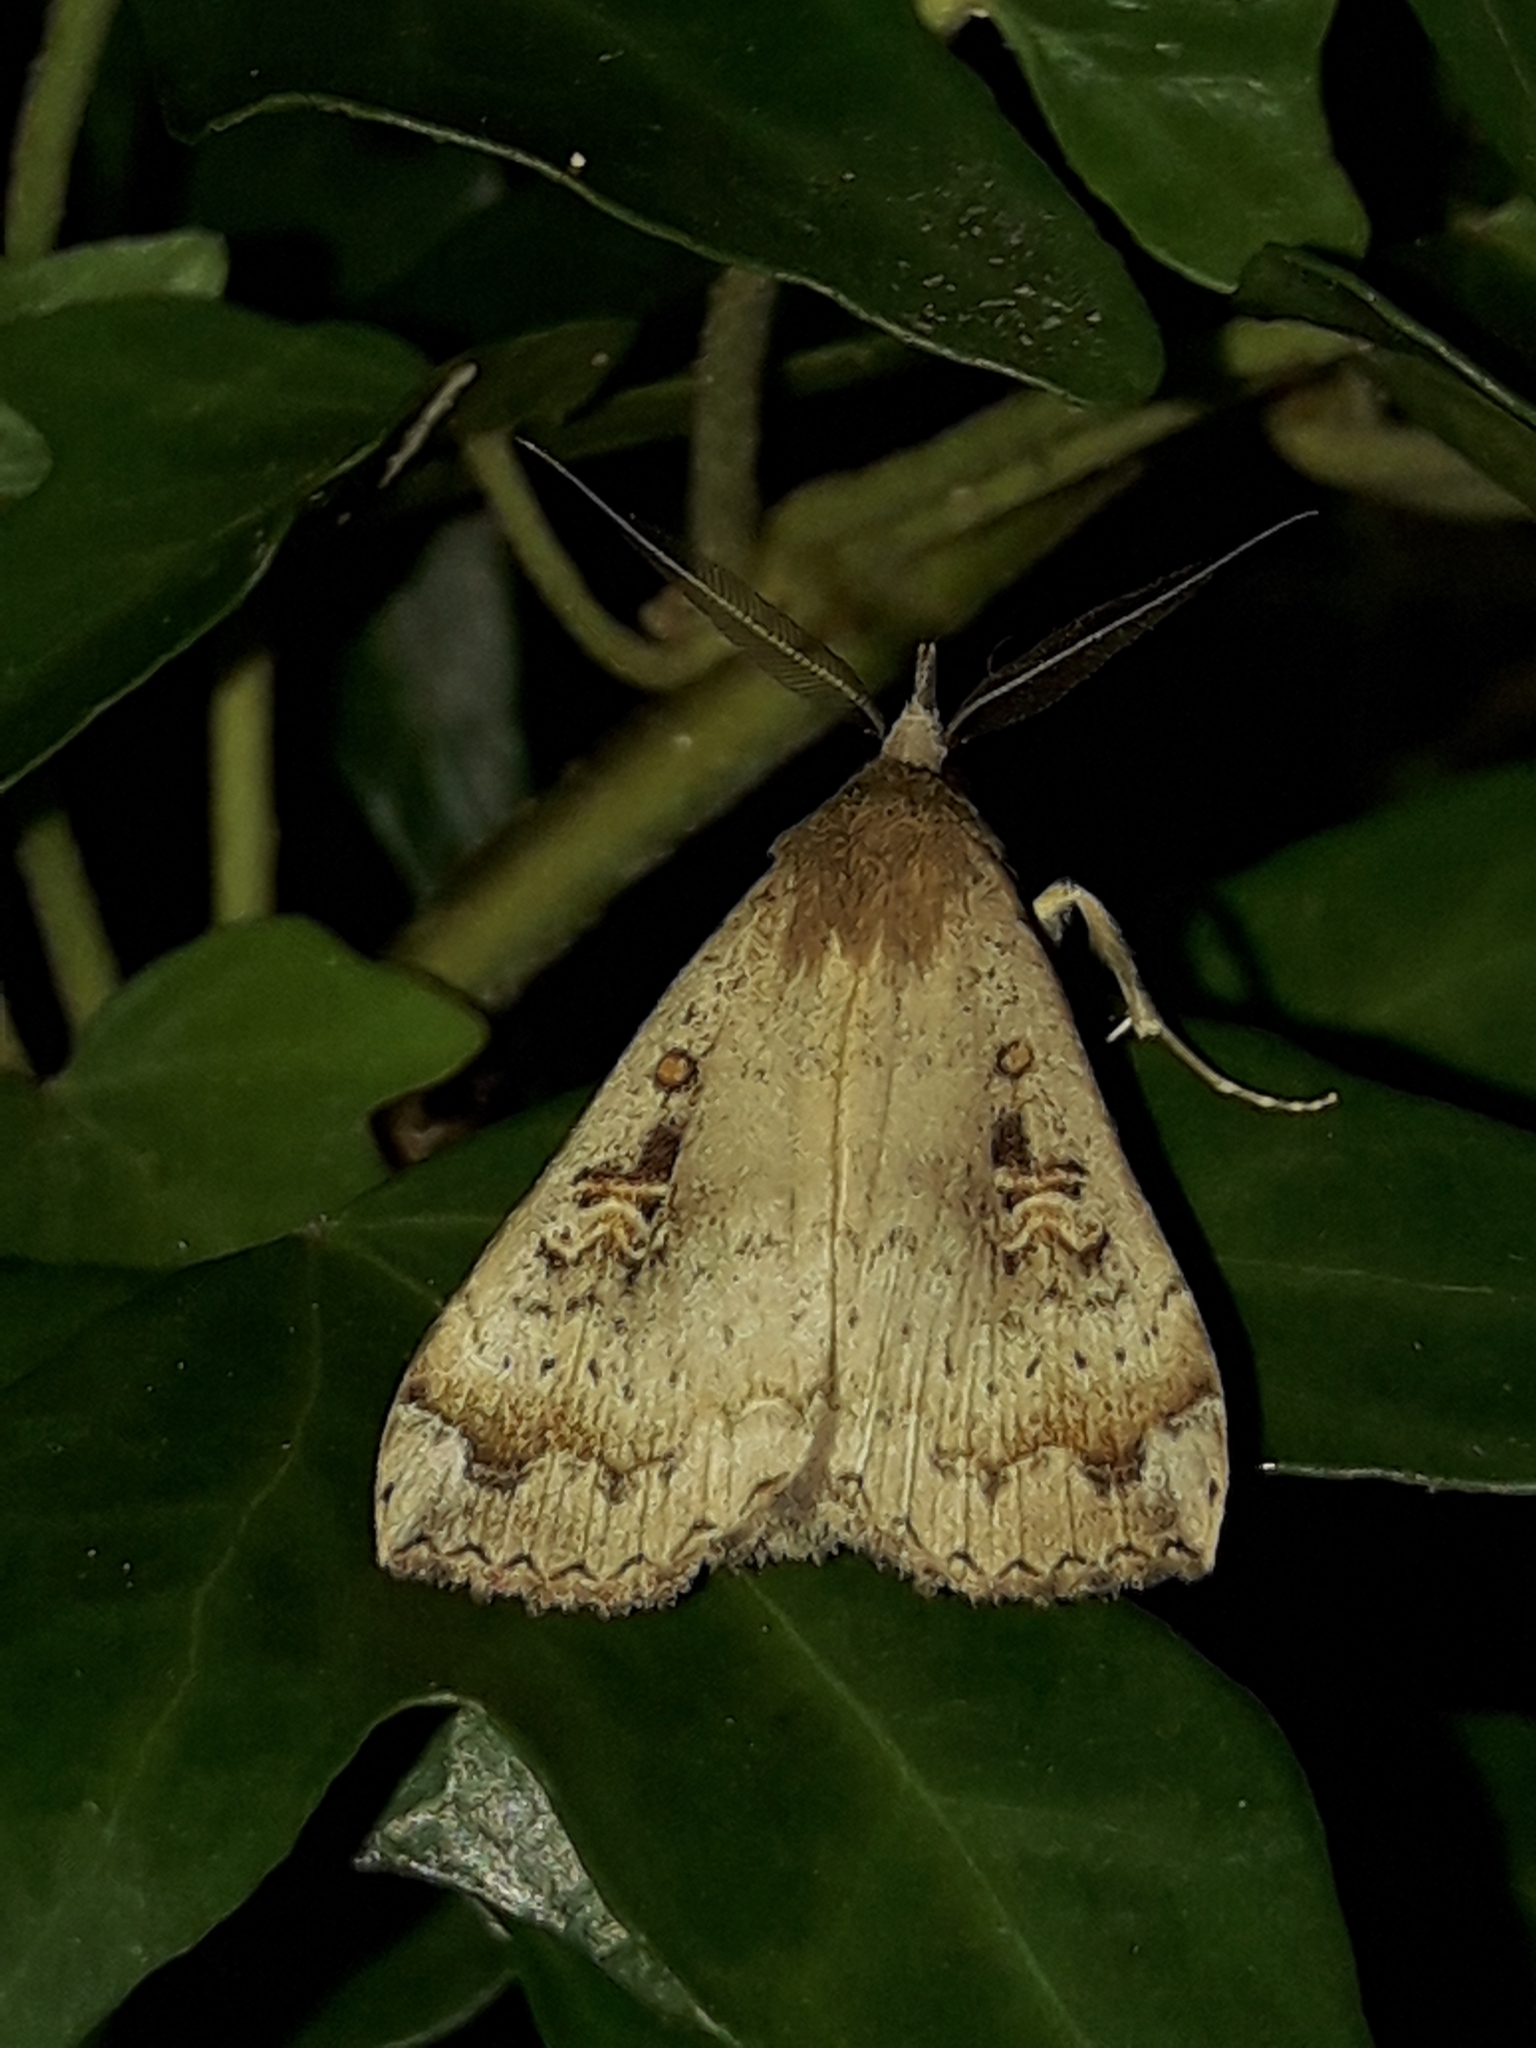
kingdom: Animalia
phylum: Arthropoda
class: Insecta
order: Lepidoptera
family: Erebidae
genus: Rhapsa
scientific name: Rhapsa scotosialis
